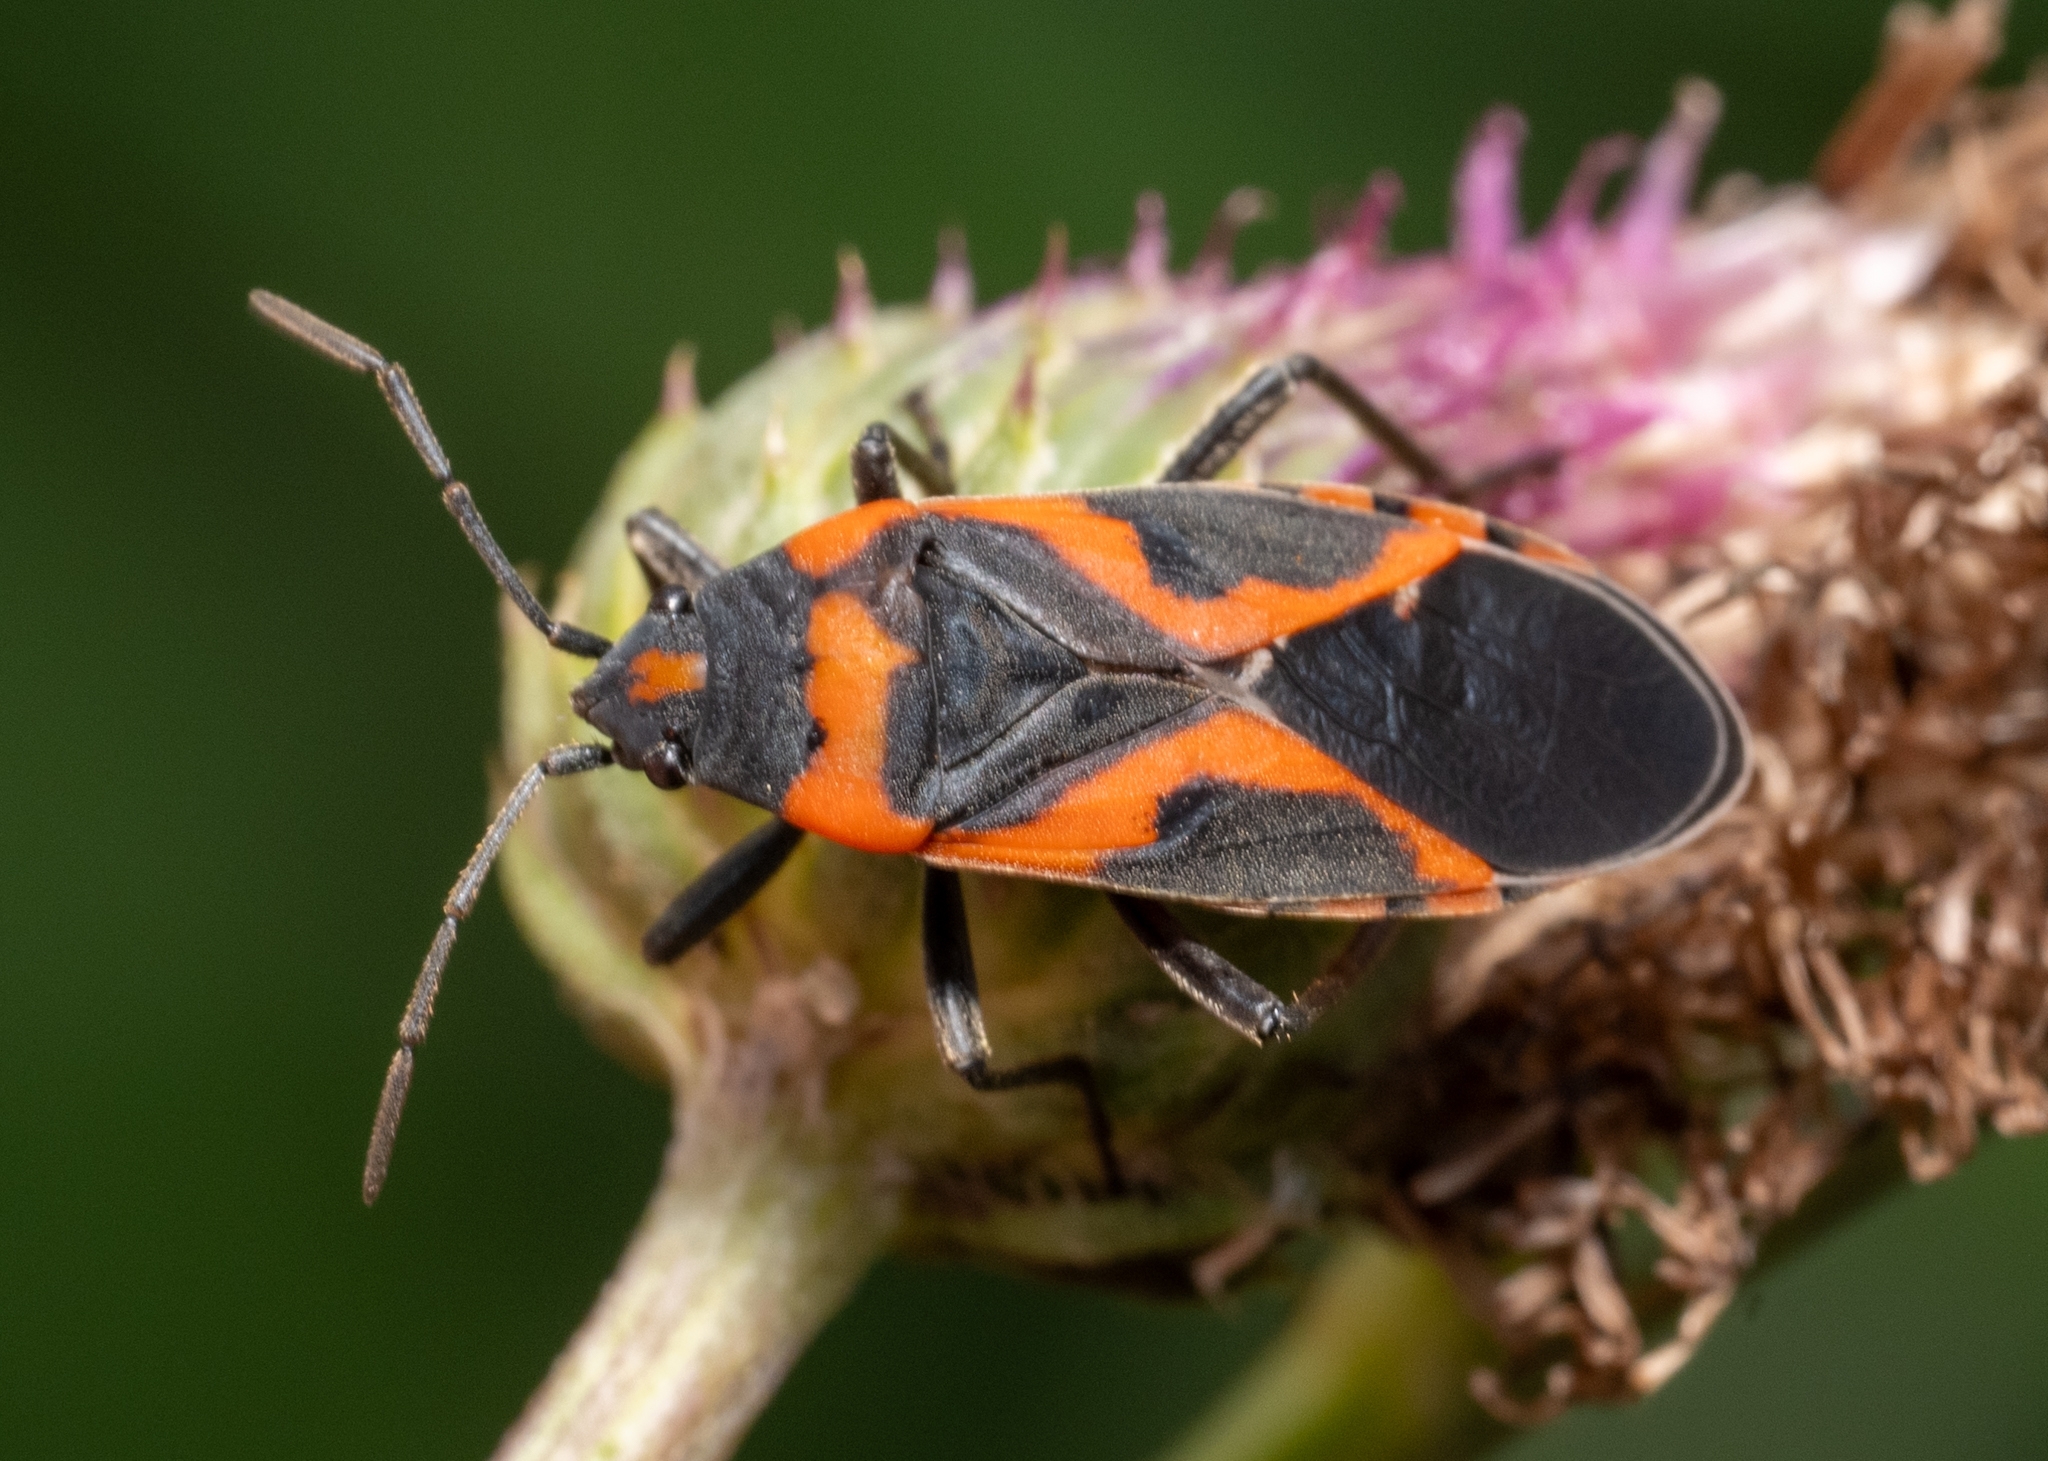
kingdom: Animalia
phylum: Arthropoda
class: Insecta
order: Hemiptera
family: Lygaeidae
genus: Lygaeus
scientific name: Lygaeus kalmii
